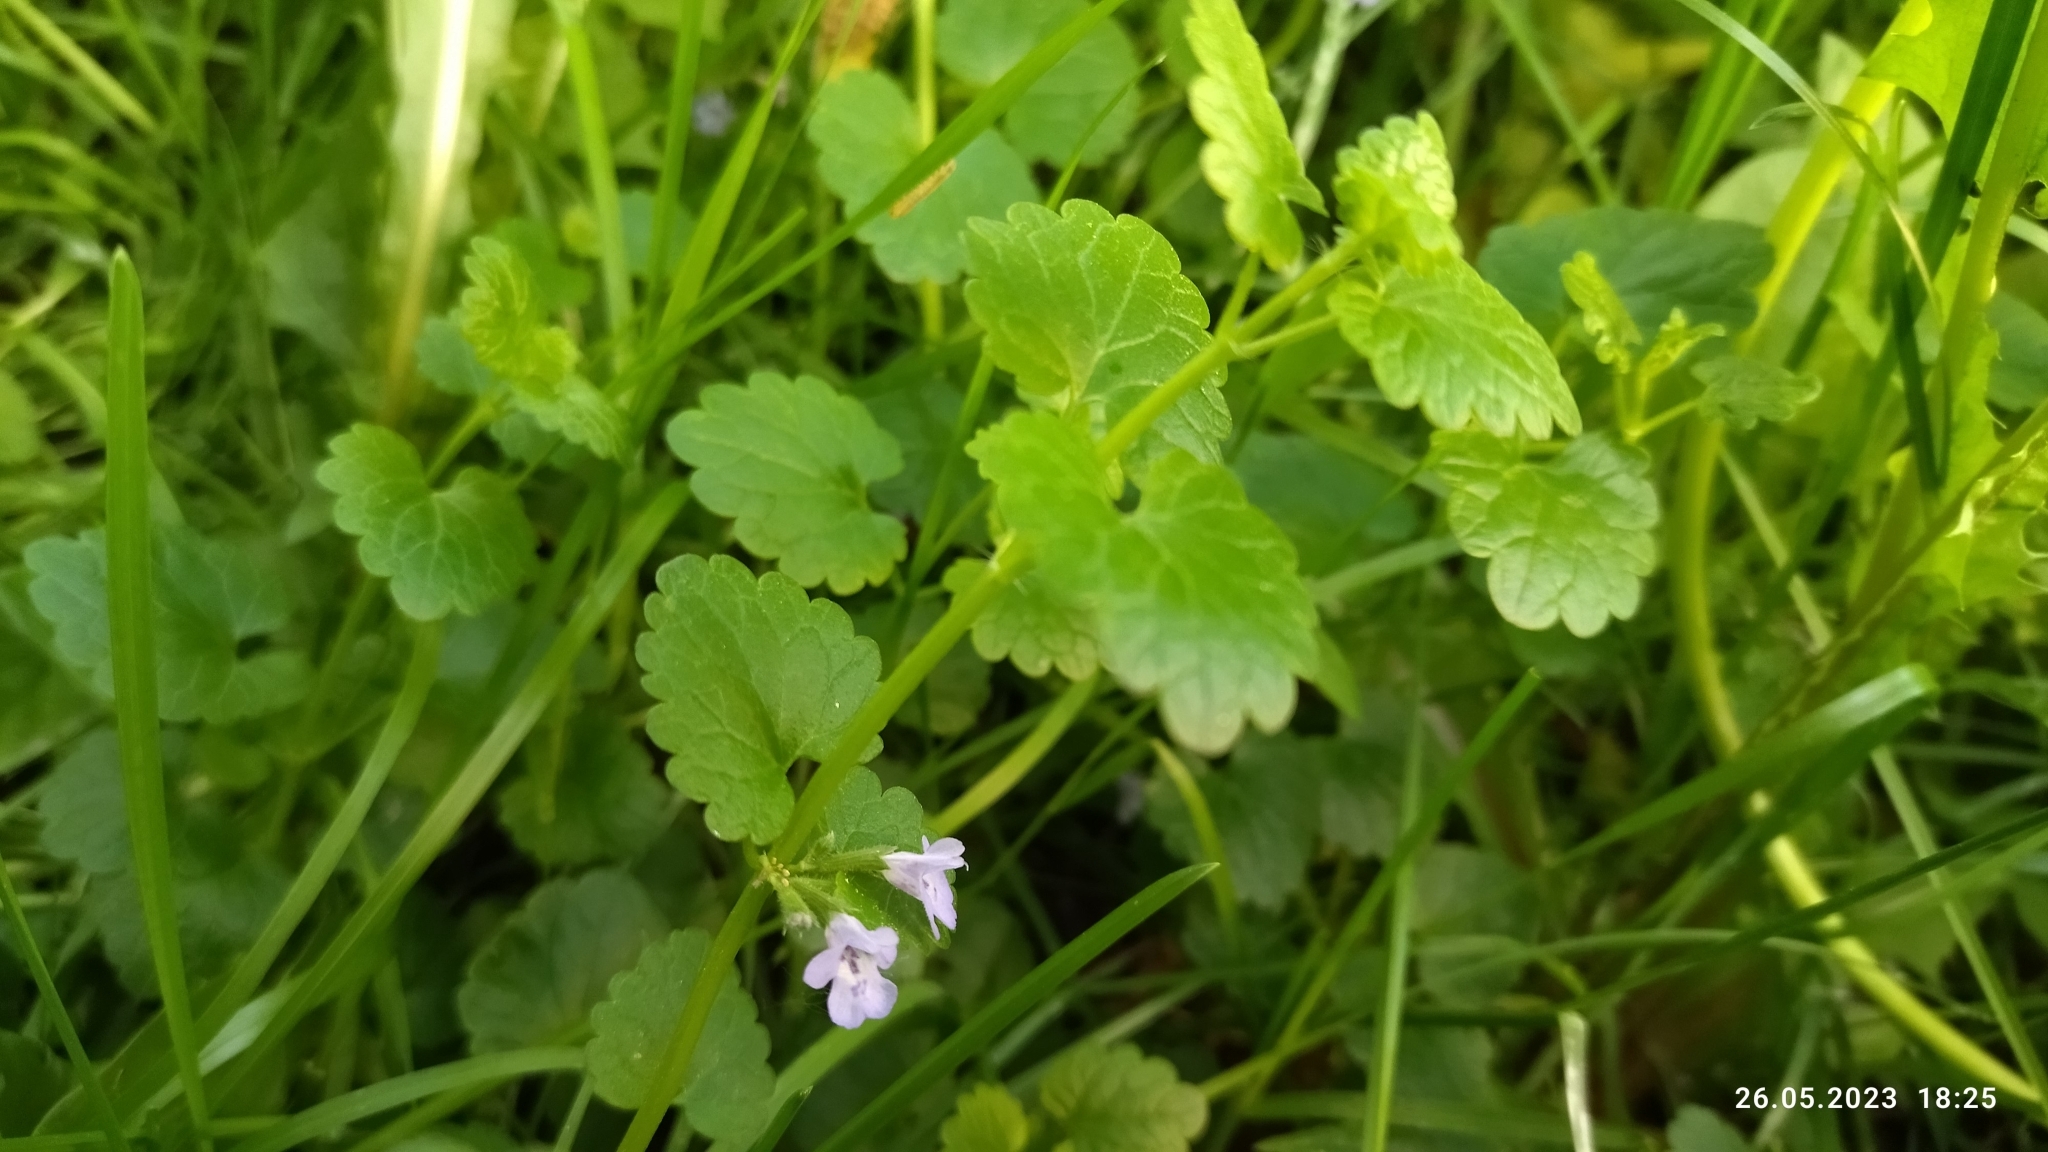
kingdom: Plantae
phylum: Tracheophyta
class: Magnoliopsida
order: Lamiales
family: Lamiaceae
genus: Glechoma
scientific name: Glechoma hederacea
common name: Ground ivy
